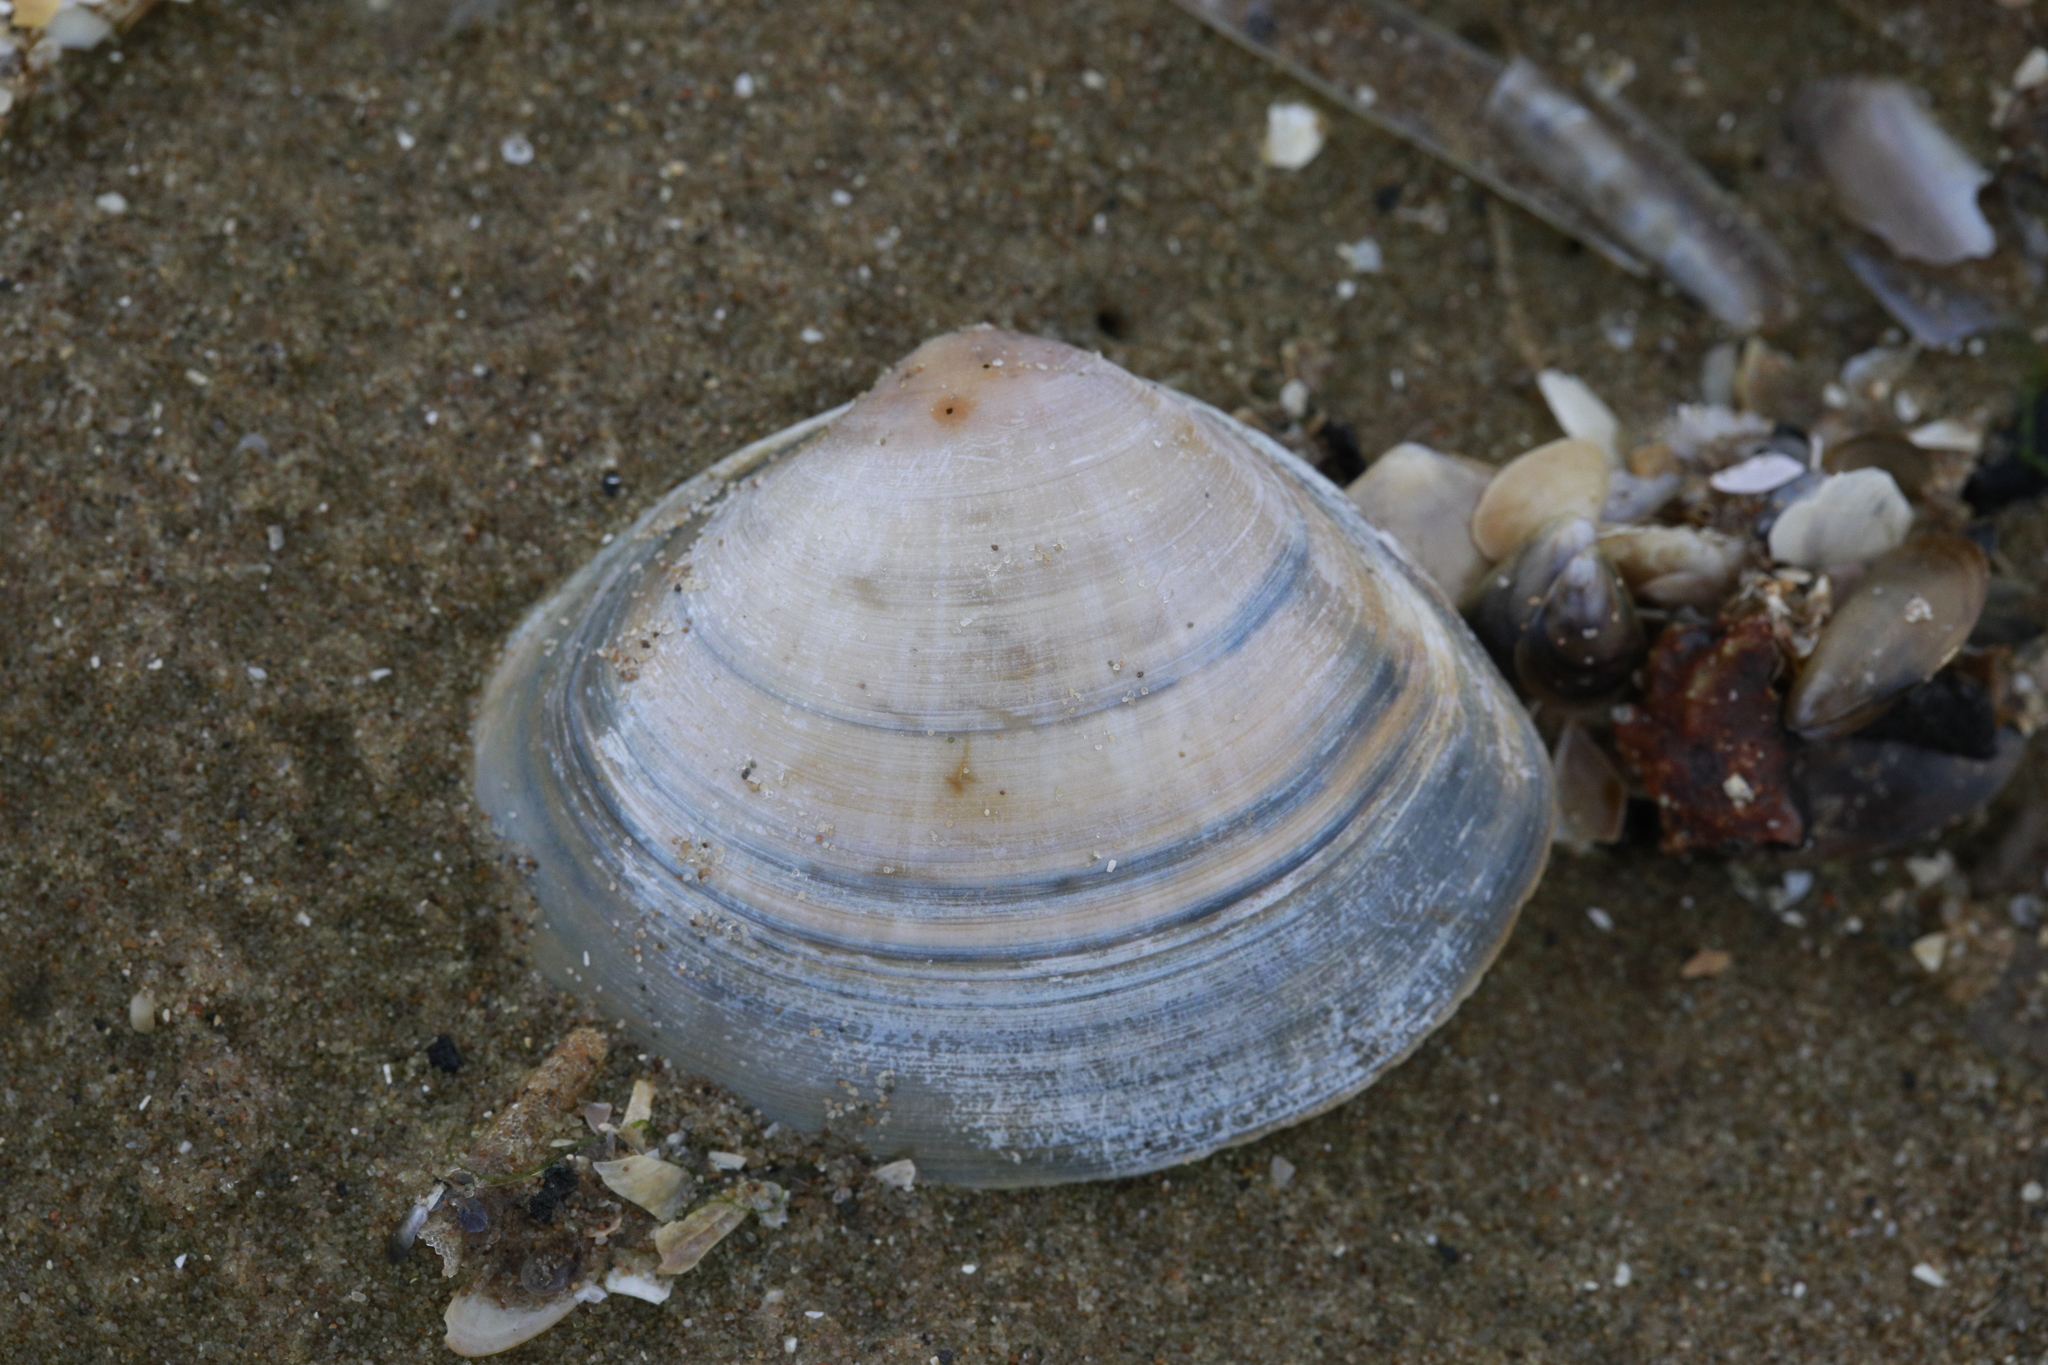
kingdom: Animalia
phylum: Mollusca
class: Bivalvia
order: Venerida
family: Mactridae
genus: Mactra
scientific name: Mactra stultorum
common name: Rayed trough shell
